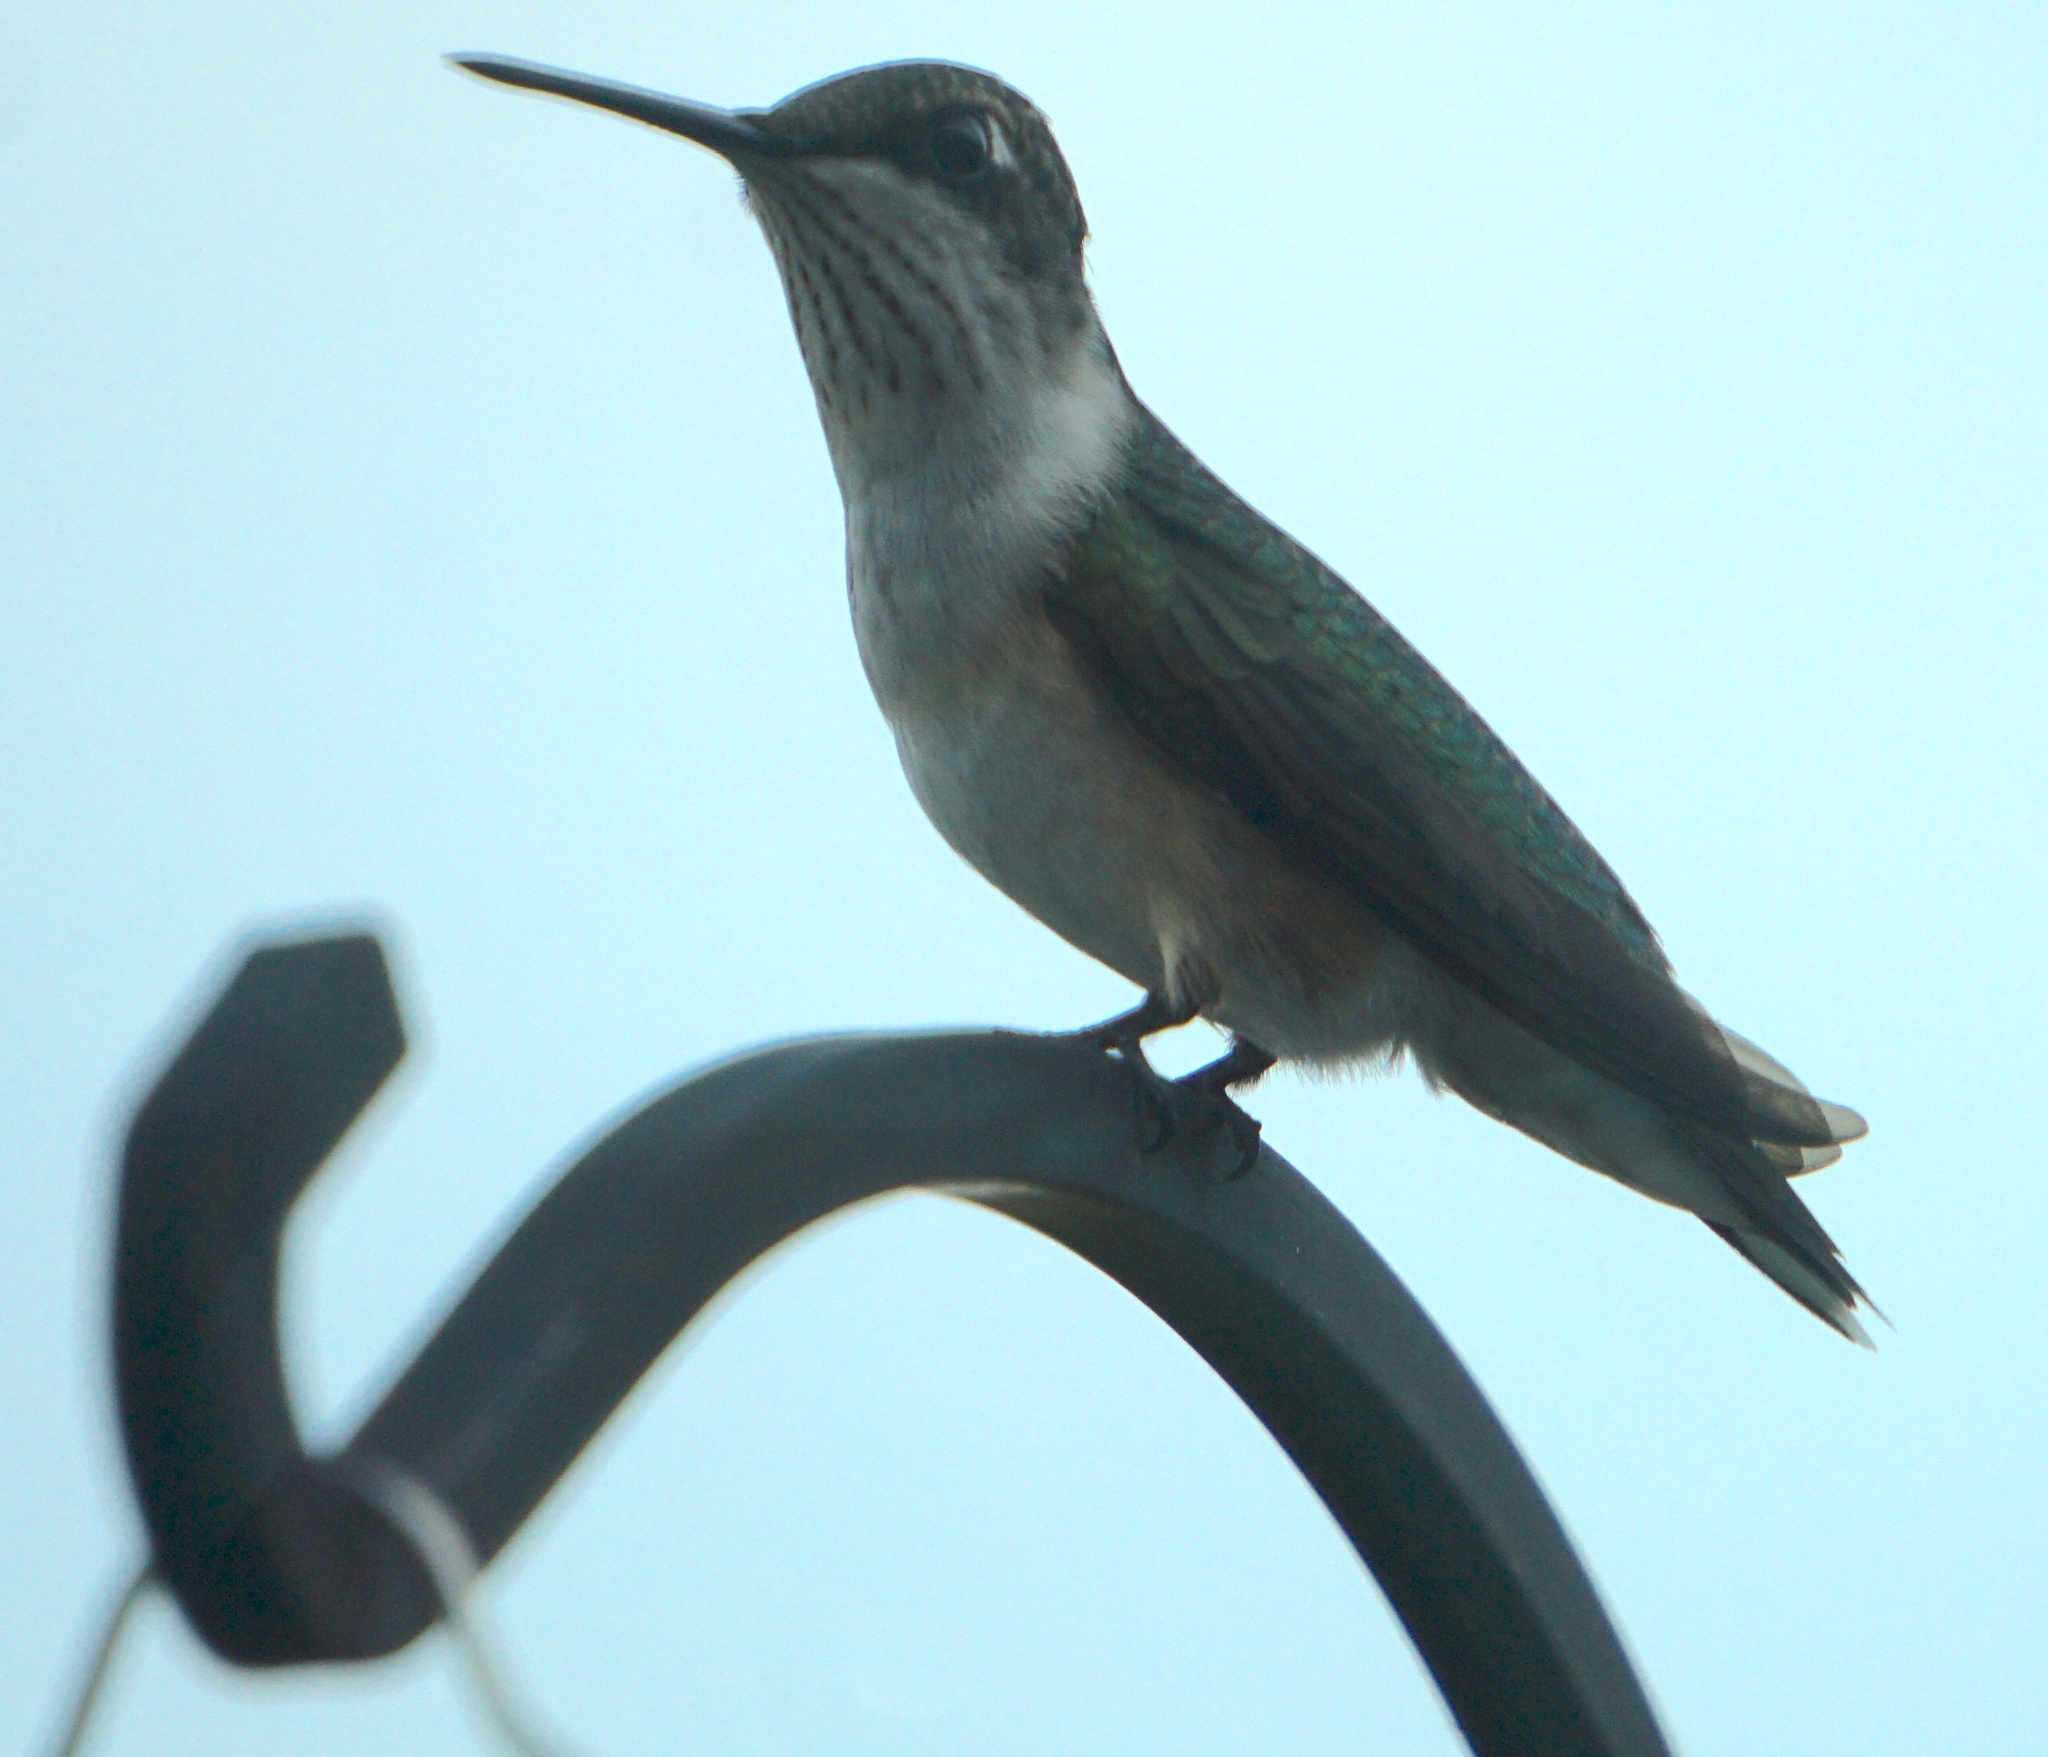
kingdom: Animalia
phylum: Chordata
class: Aves
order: Apodiformes
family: Trochilidae
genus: Archilochus
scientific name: Archilochus colubris
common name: Ruby-throated hummingbird
